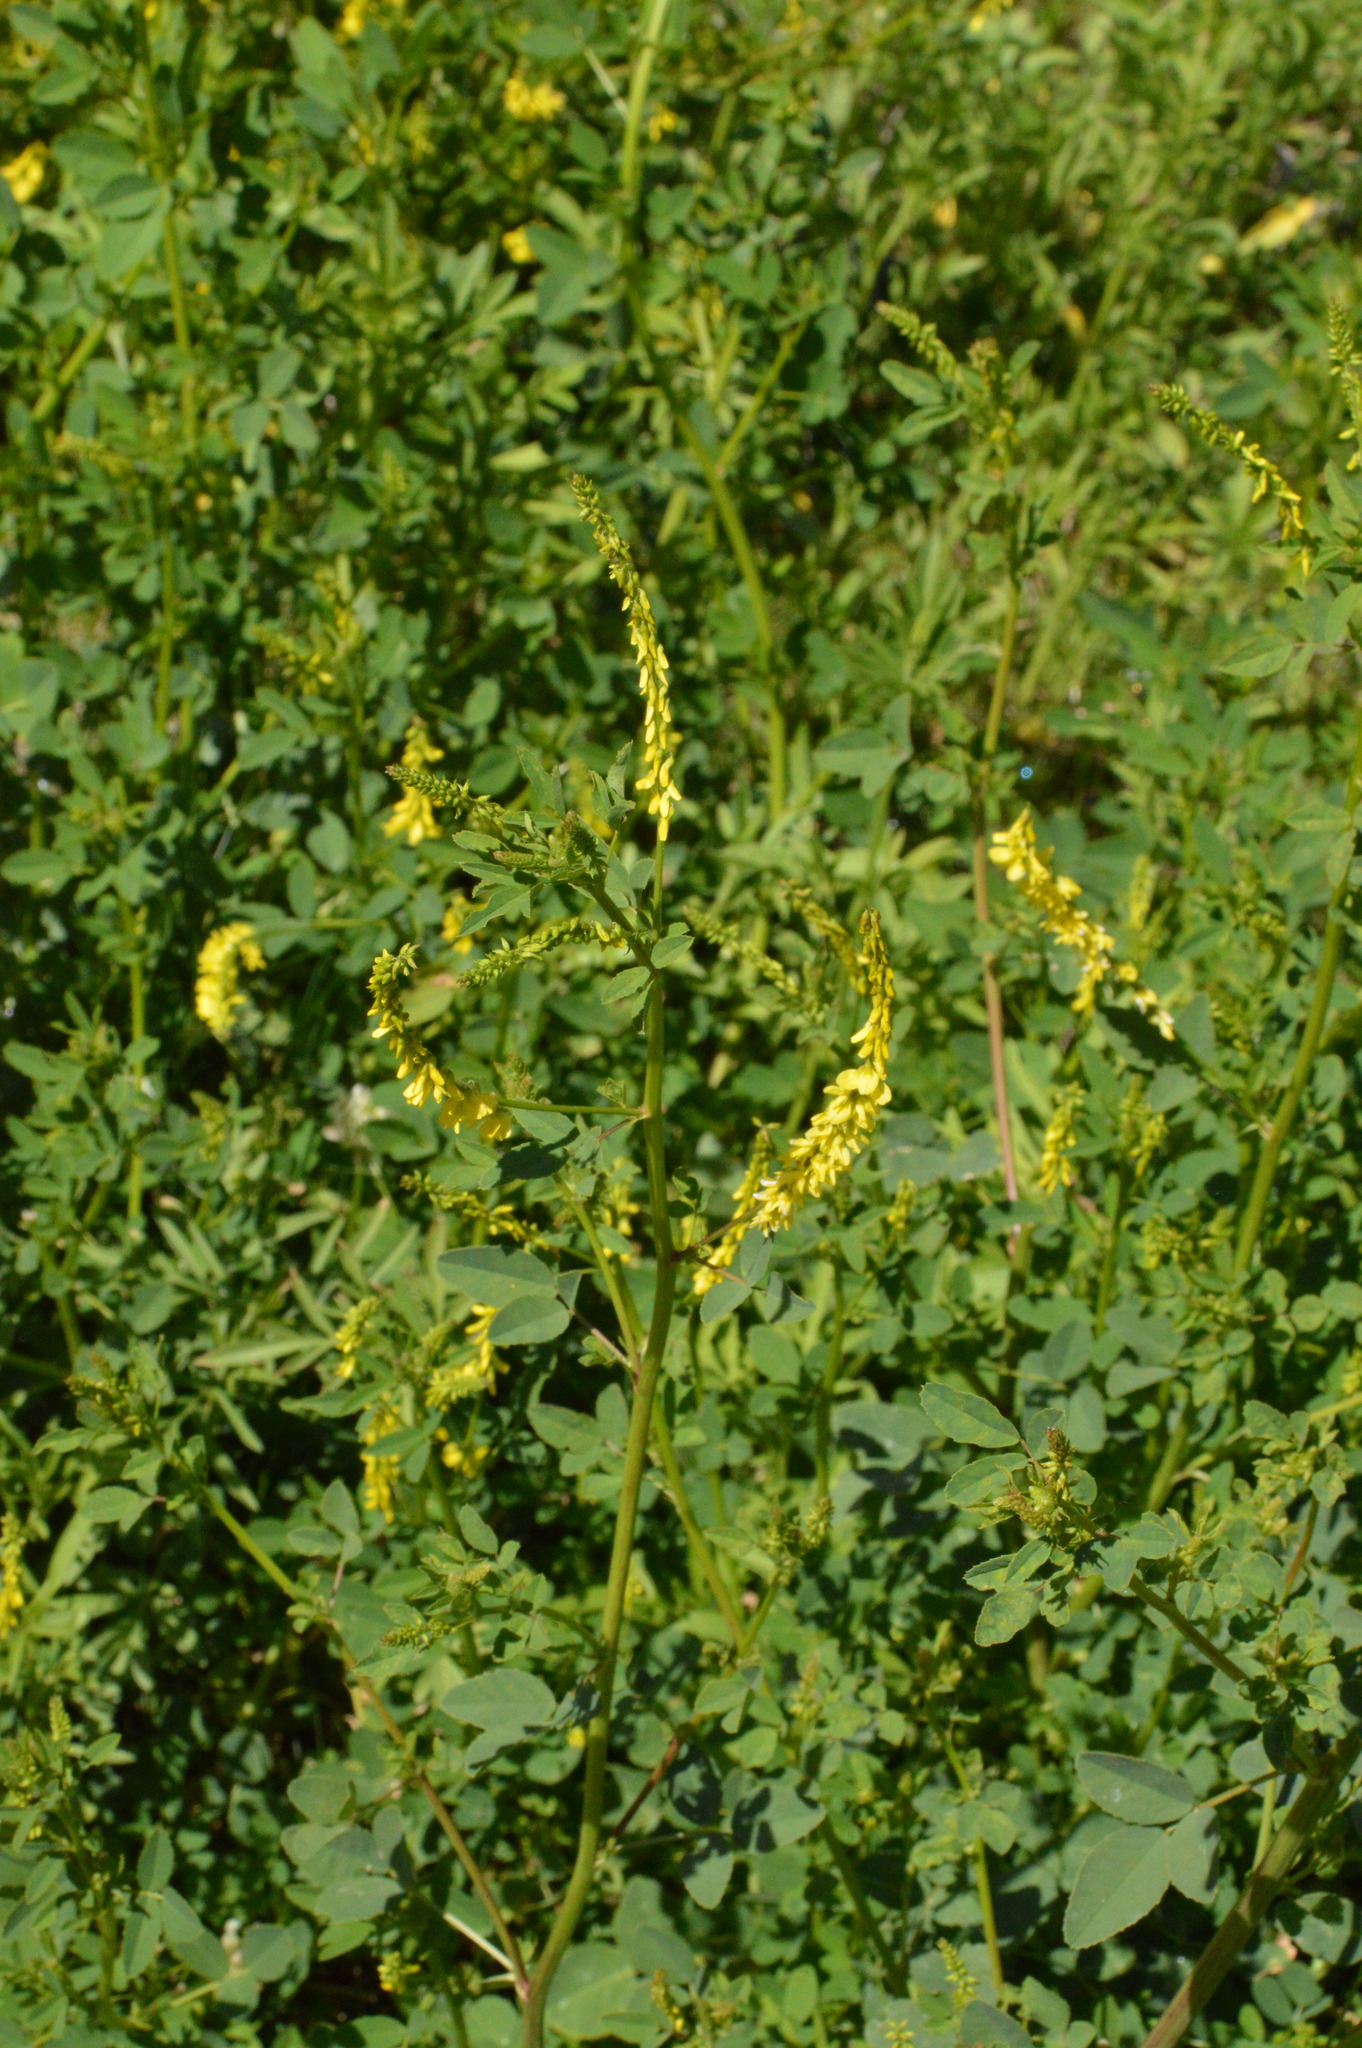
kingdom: Plantae
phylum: Tracheophyta
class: Magnoliopsida
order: Fabales
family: Fabaceae
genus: Melilotus
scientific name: Melilotus officinalis
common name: Sweetclover
